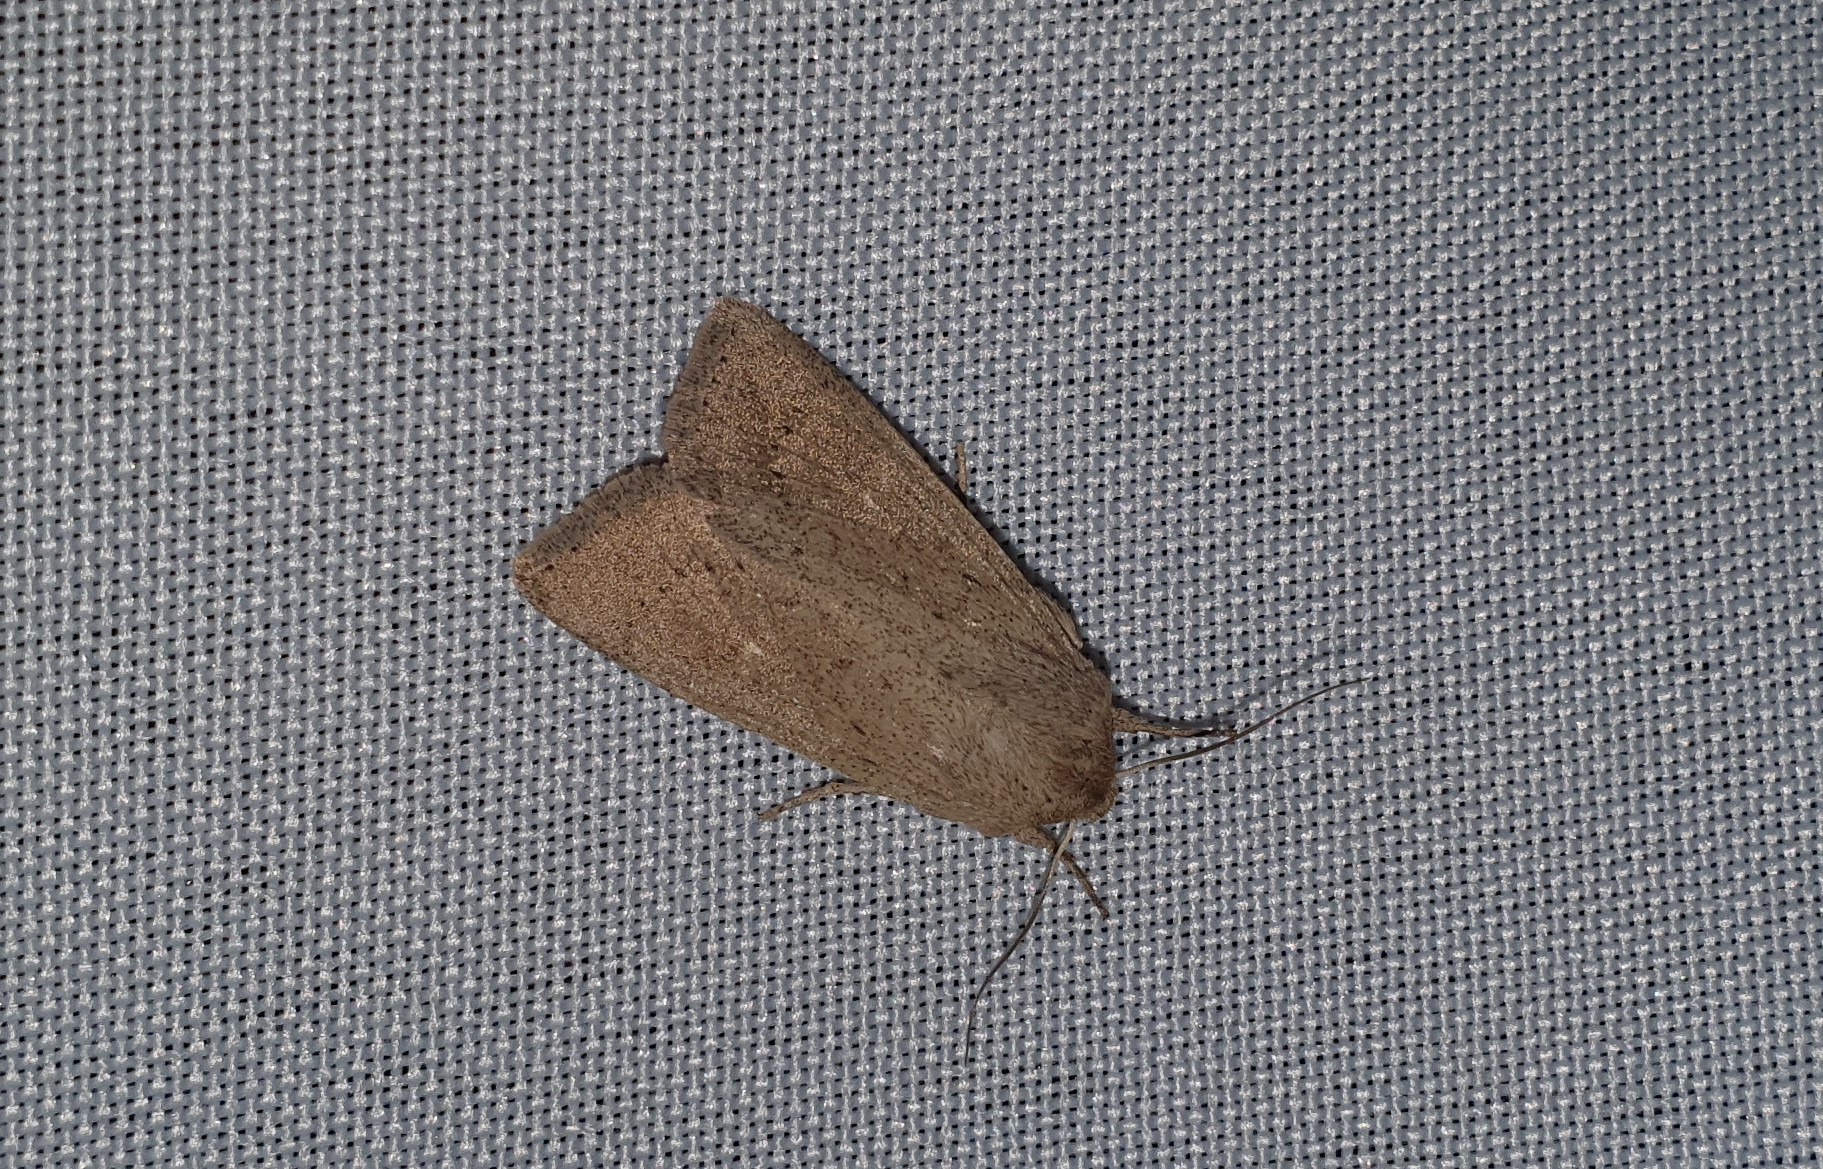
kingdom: Animalia
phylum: Arthropoda
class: Insecta
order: Lepidoptera
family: Noctuidae
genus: Leucania
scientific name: Leucania zeae
